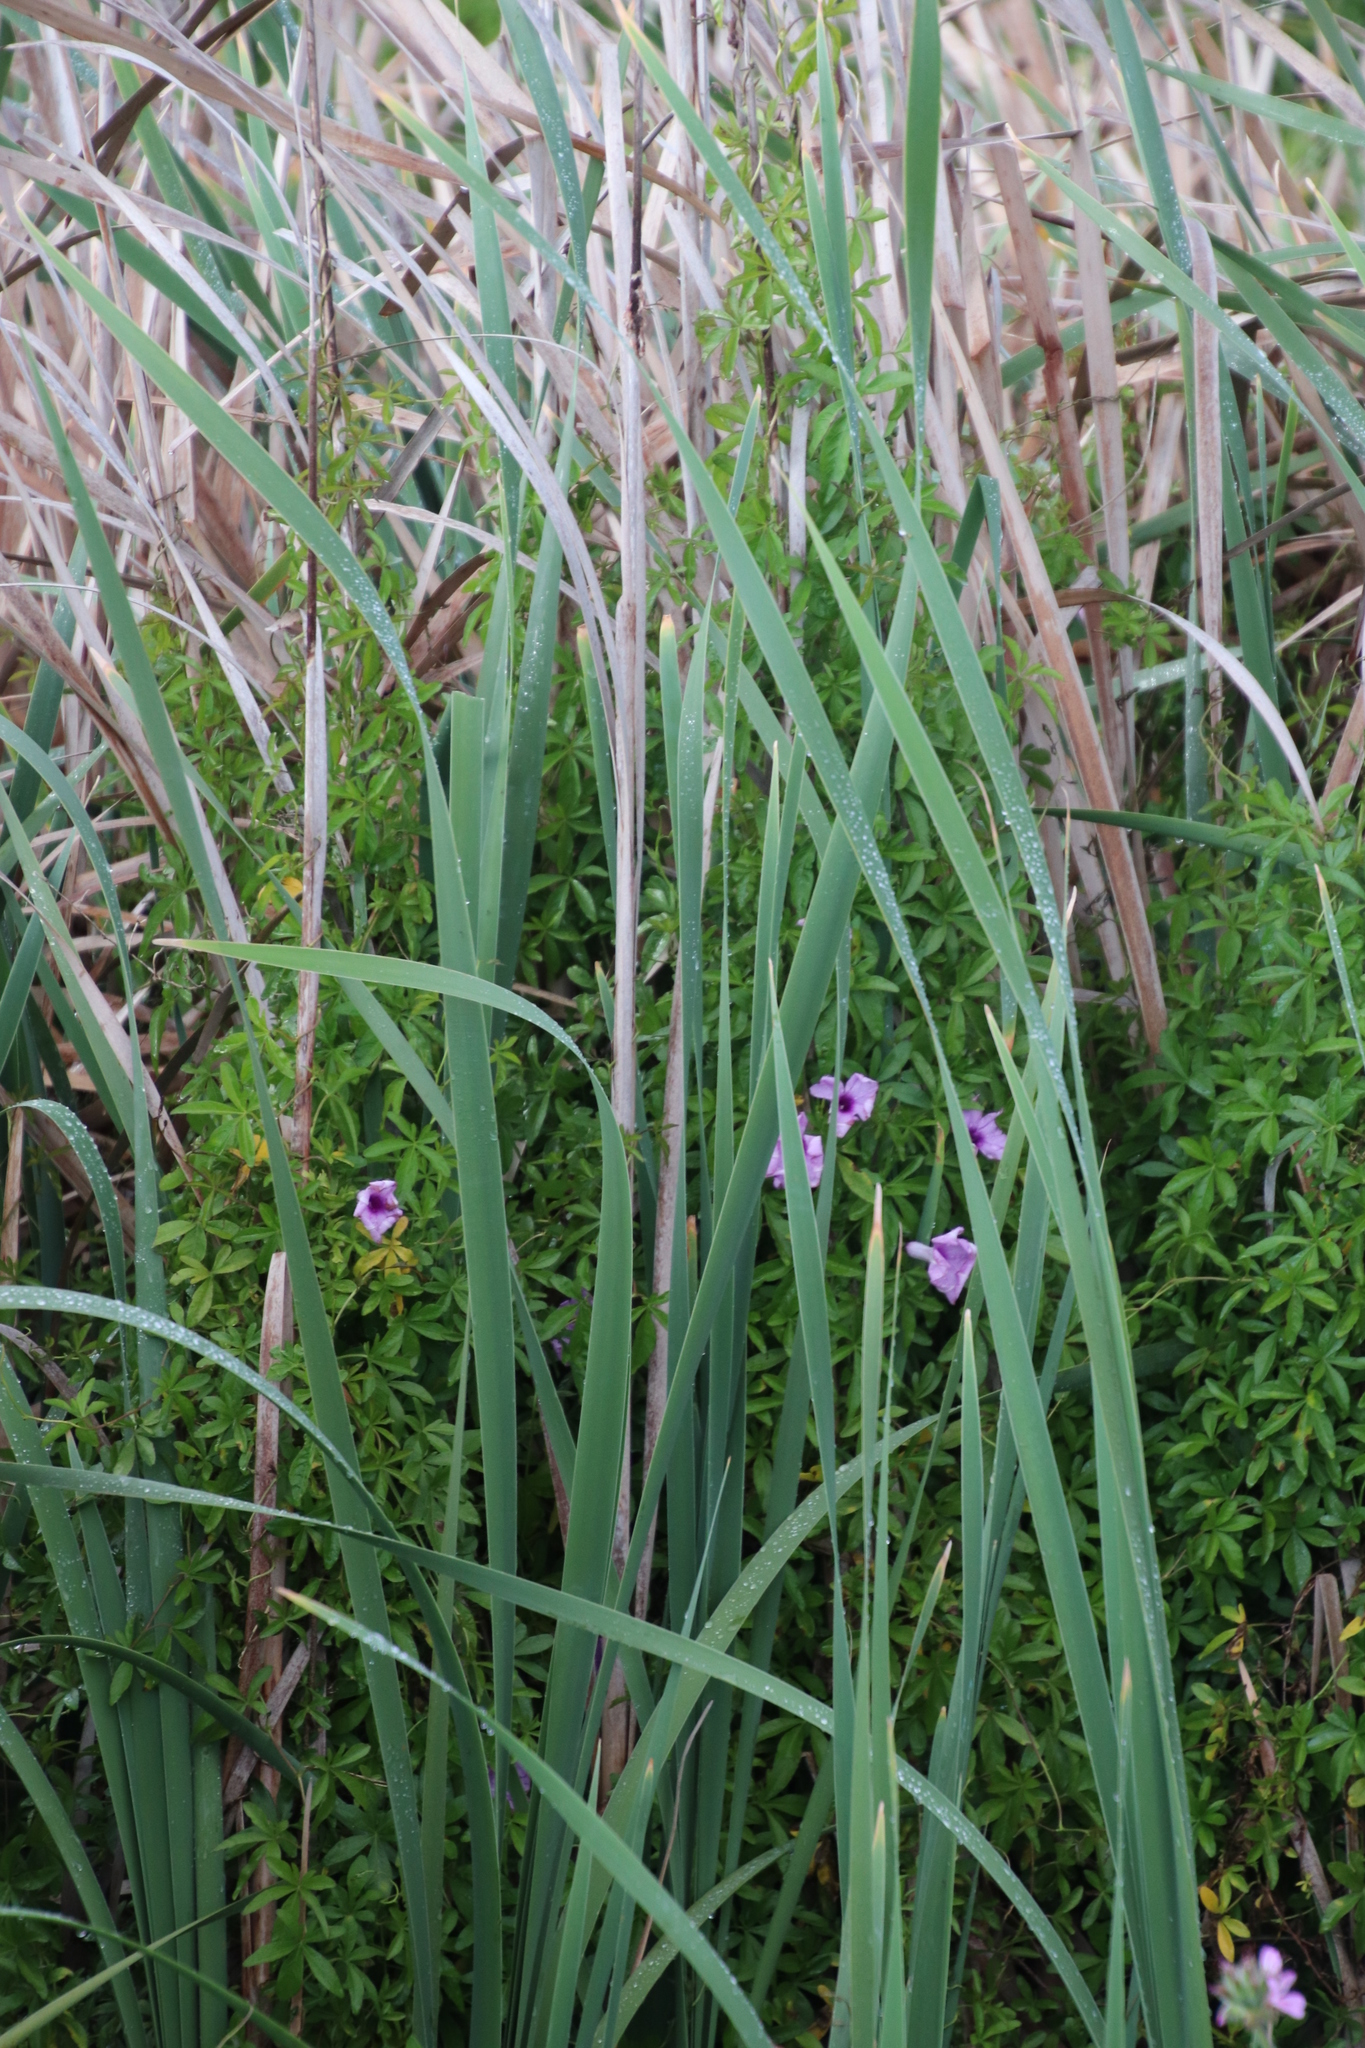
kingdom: Plantae
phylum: Tracheophyta
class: Magnoliopsida
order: Solanales
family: Convolvulaceae
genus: Ipomoea
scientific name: Ipomoea cairica
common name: Mile a minute vine
